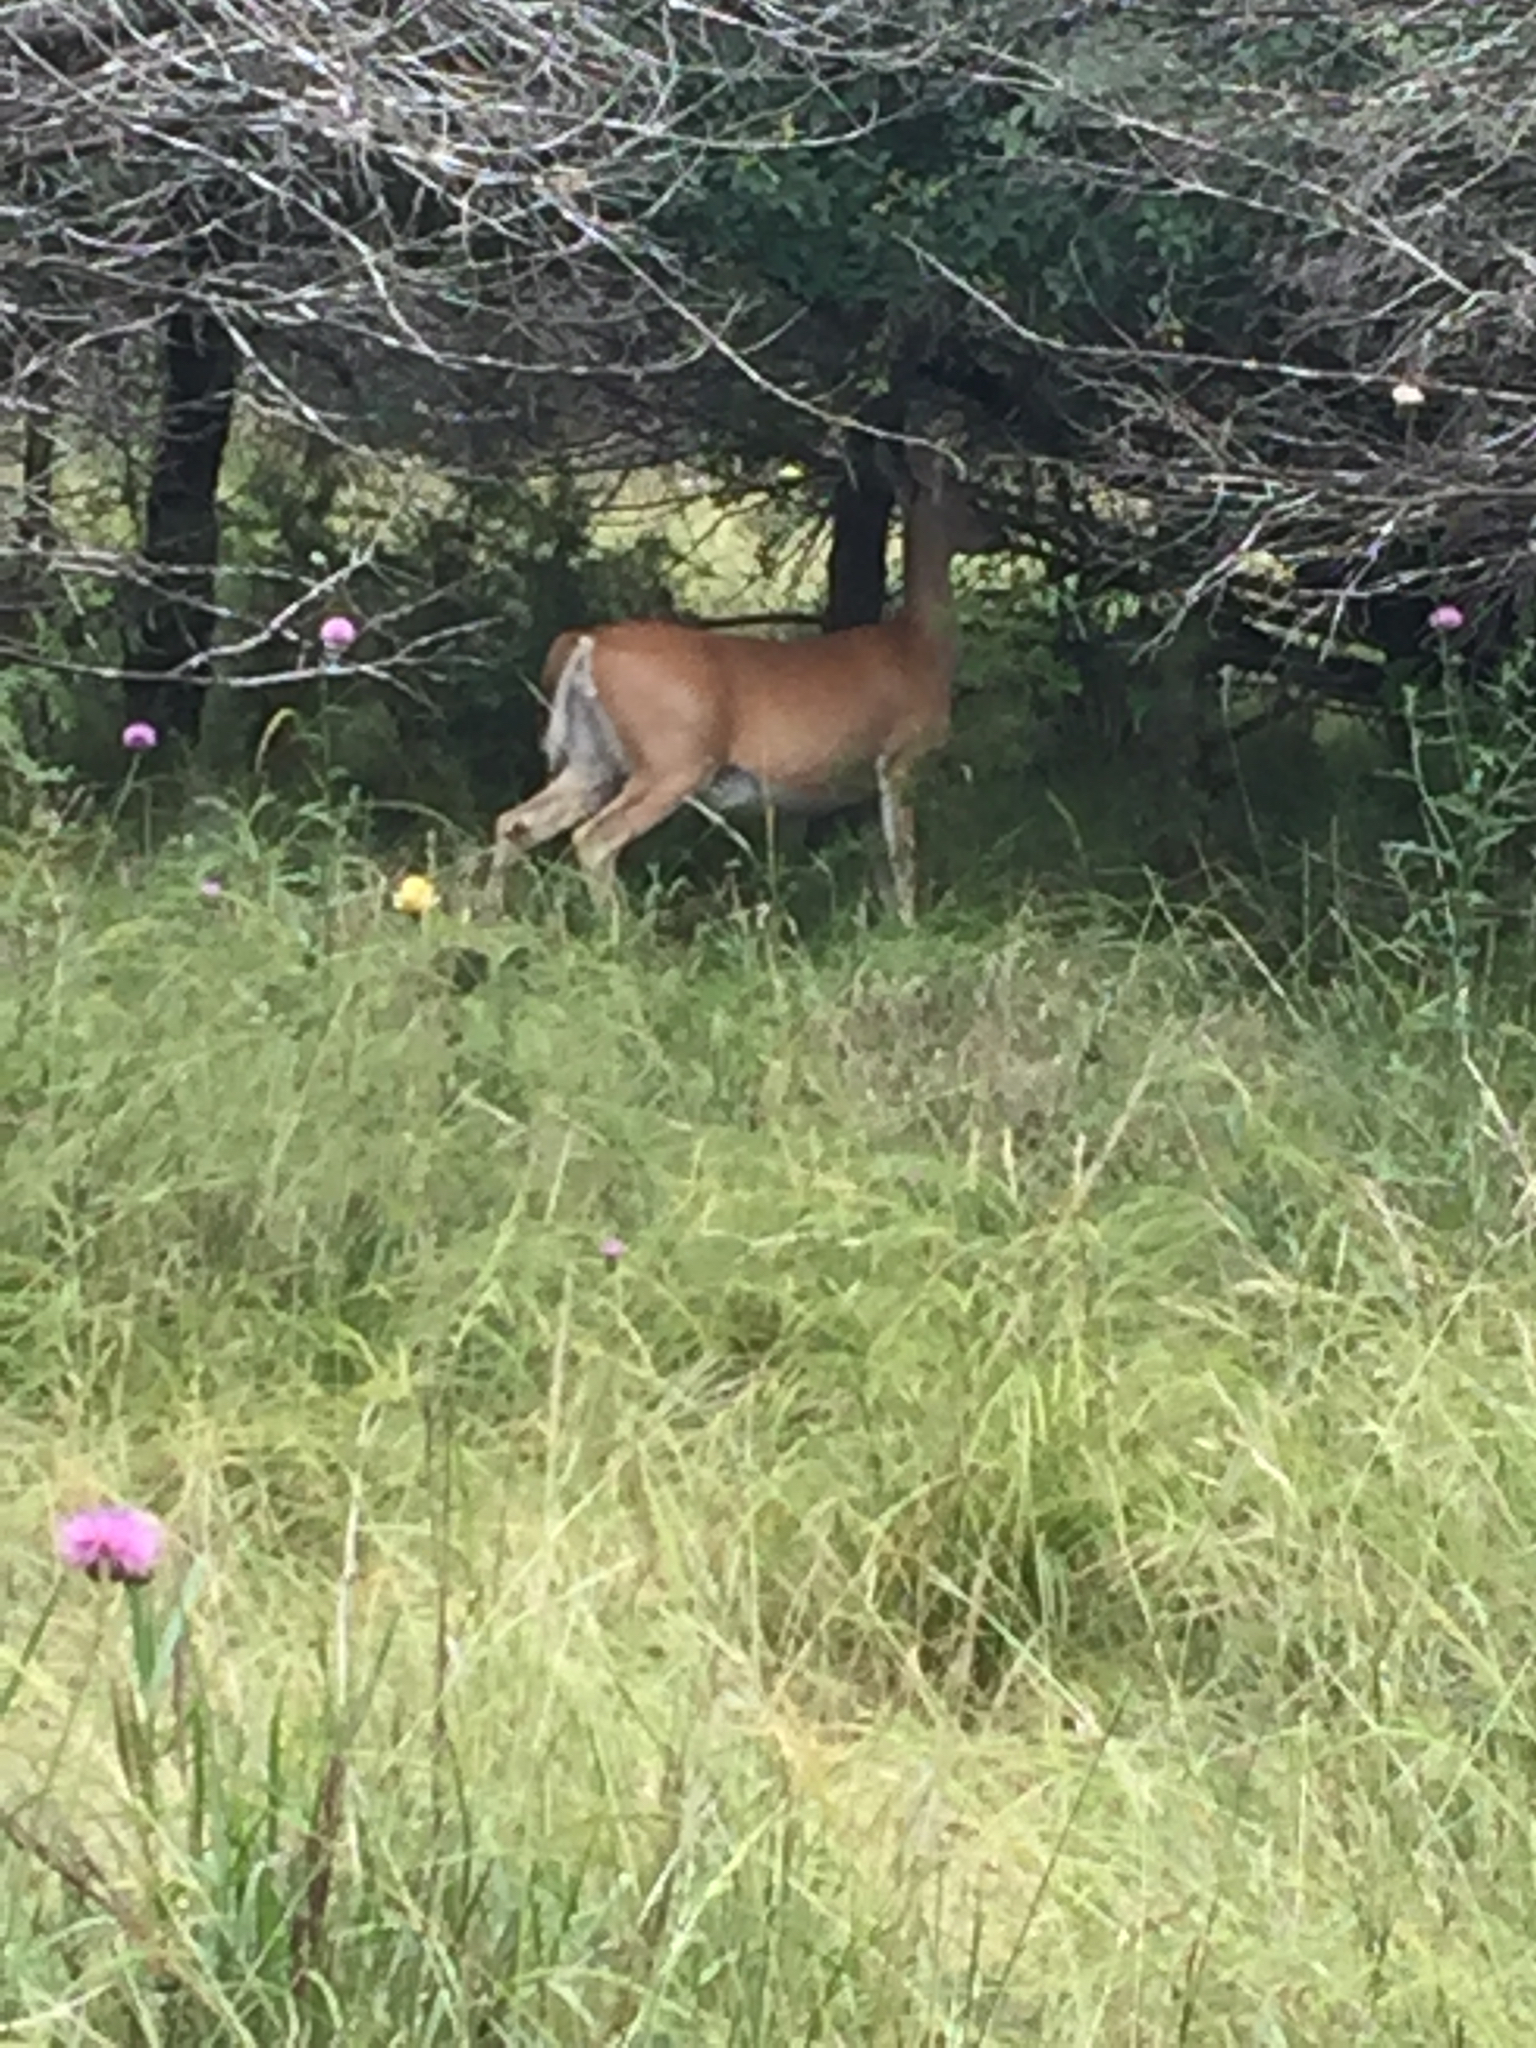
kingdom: Animalia
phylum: Chordata
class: Mammalia
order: Artiodactyla
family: Cervidae
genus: Odocoileus
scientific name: Odocoileus virginianus
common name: White-tailed deer
